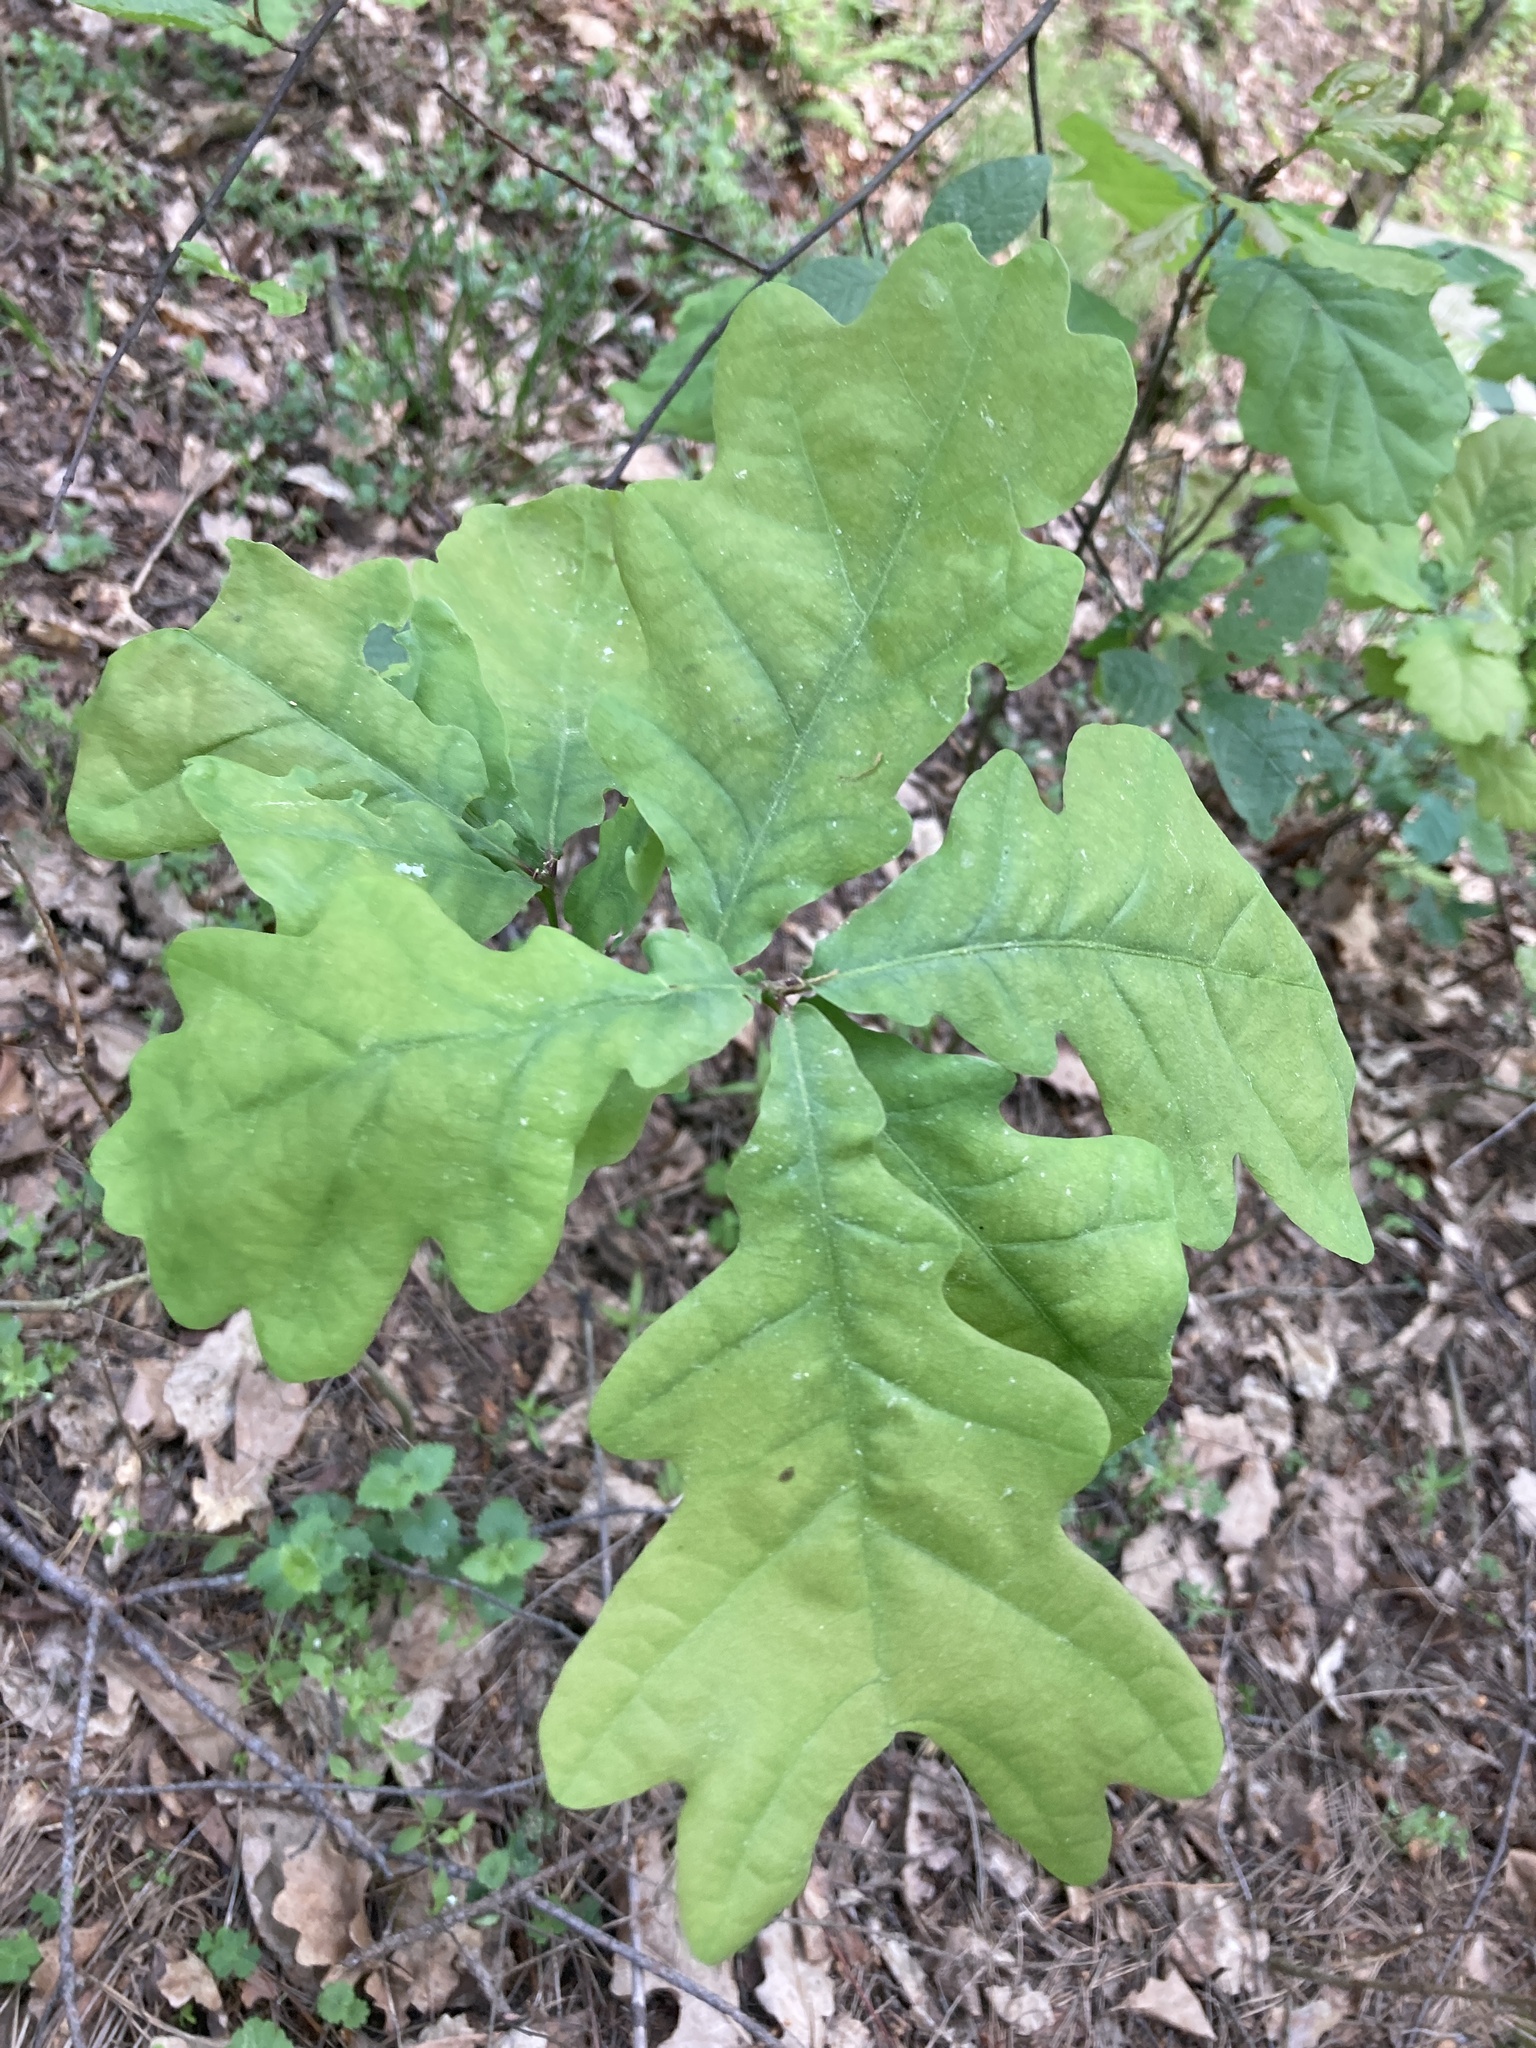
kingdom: Plantae
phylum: Tracheophyta
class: Magnoliopsida
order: Fagales
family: Fagaceae
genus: Quercus
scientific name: Quercus robur
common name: Pedunculate oak
